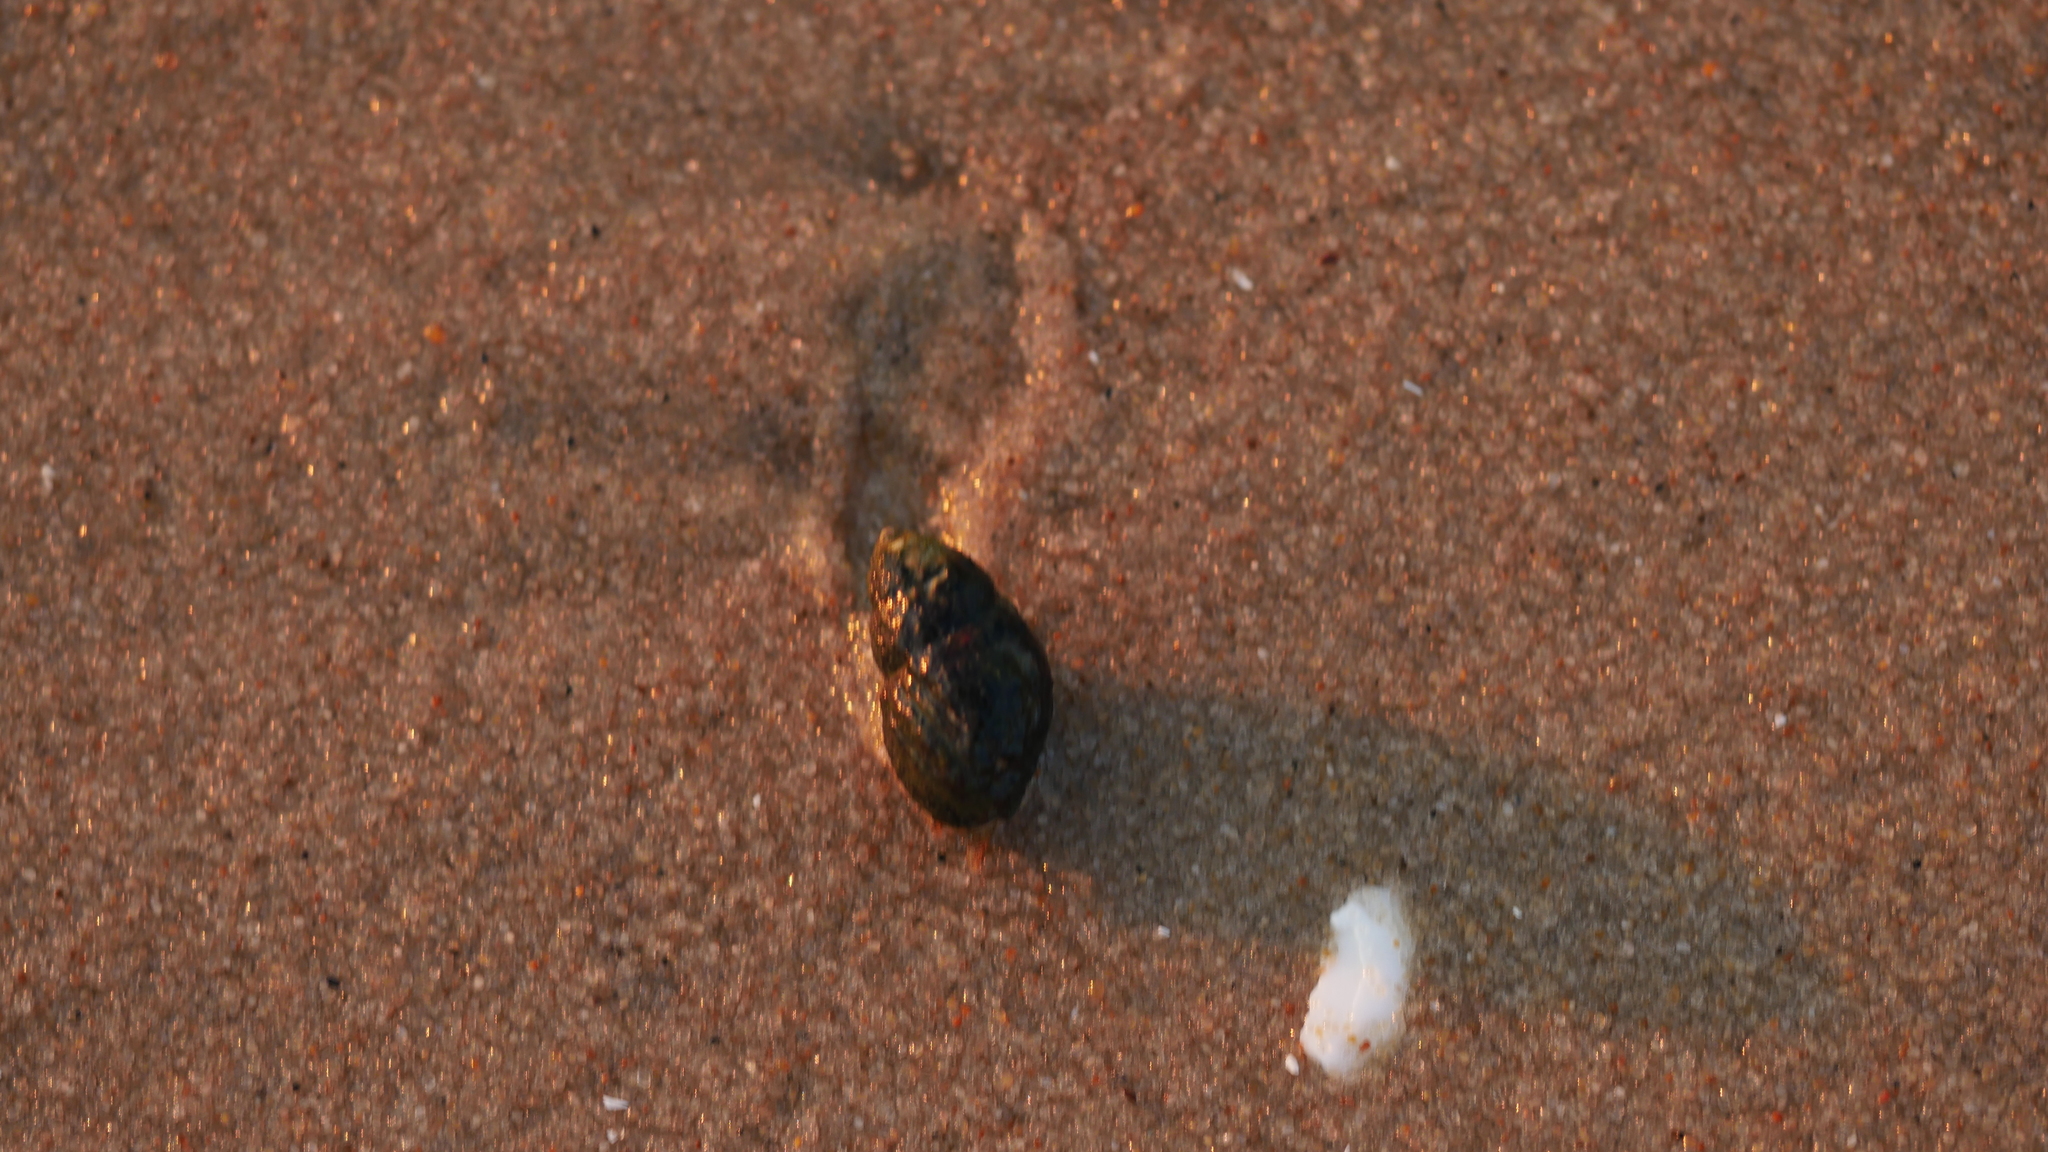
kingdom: Animalia
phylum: Mollusca
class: Gastropoda
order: Neogastropoda
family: Nassariidae
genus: Ilyanassa
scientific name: Ilyanassa obsoleta
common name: Eastern mudsnail
